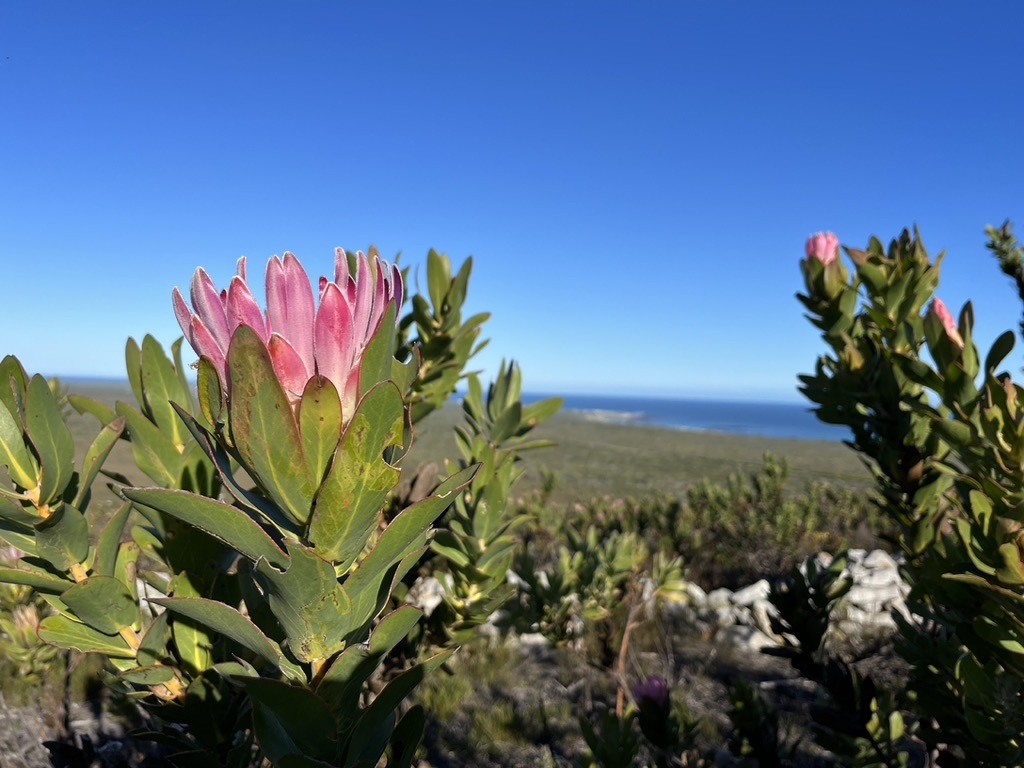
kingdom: Plantae
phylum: Tracheophyta
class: Magnoliopsida
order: Proteales
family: Proteaceae
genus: Protea
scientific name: Protea compacta
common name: Bot river protea
